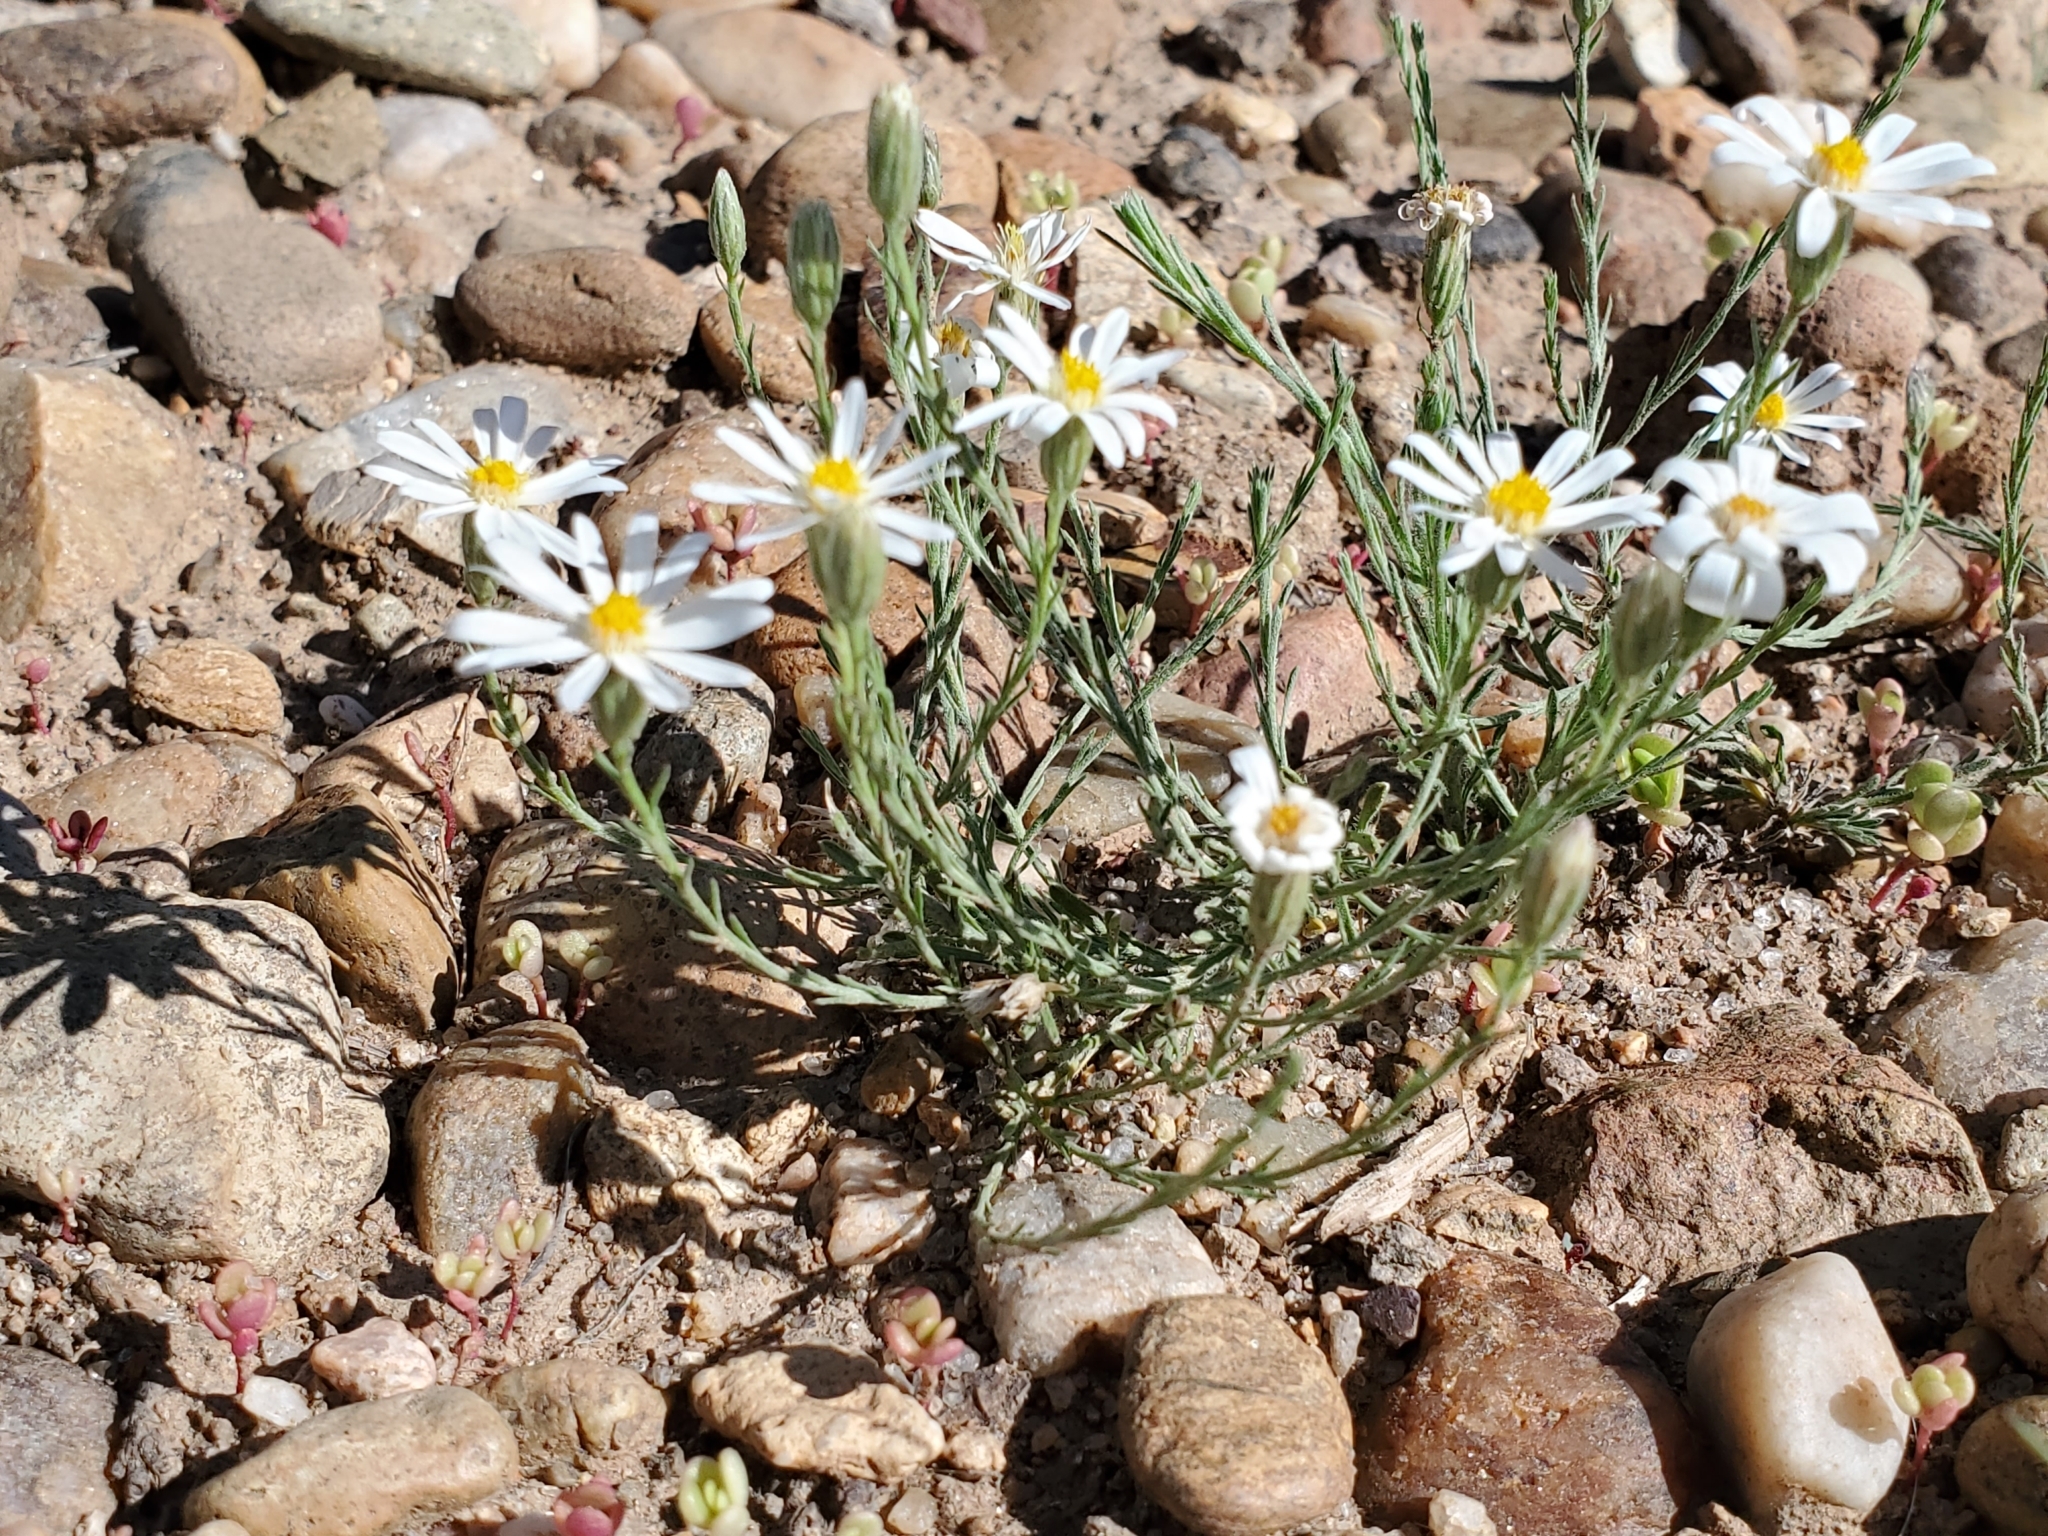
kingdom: Plantae
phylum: Tracheophyta
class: Magnoliopsida
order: Asterales
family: Asteraceae
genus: Chaetopappa
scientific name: Chaetopappa ericoides
